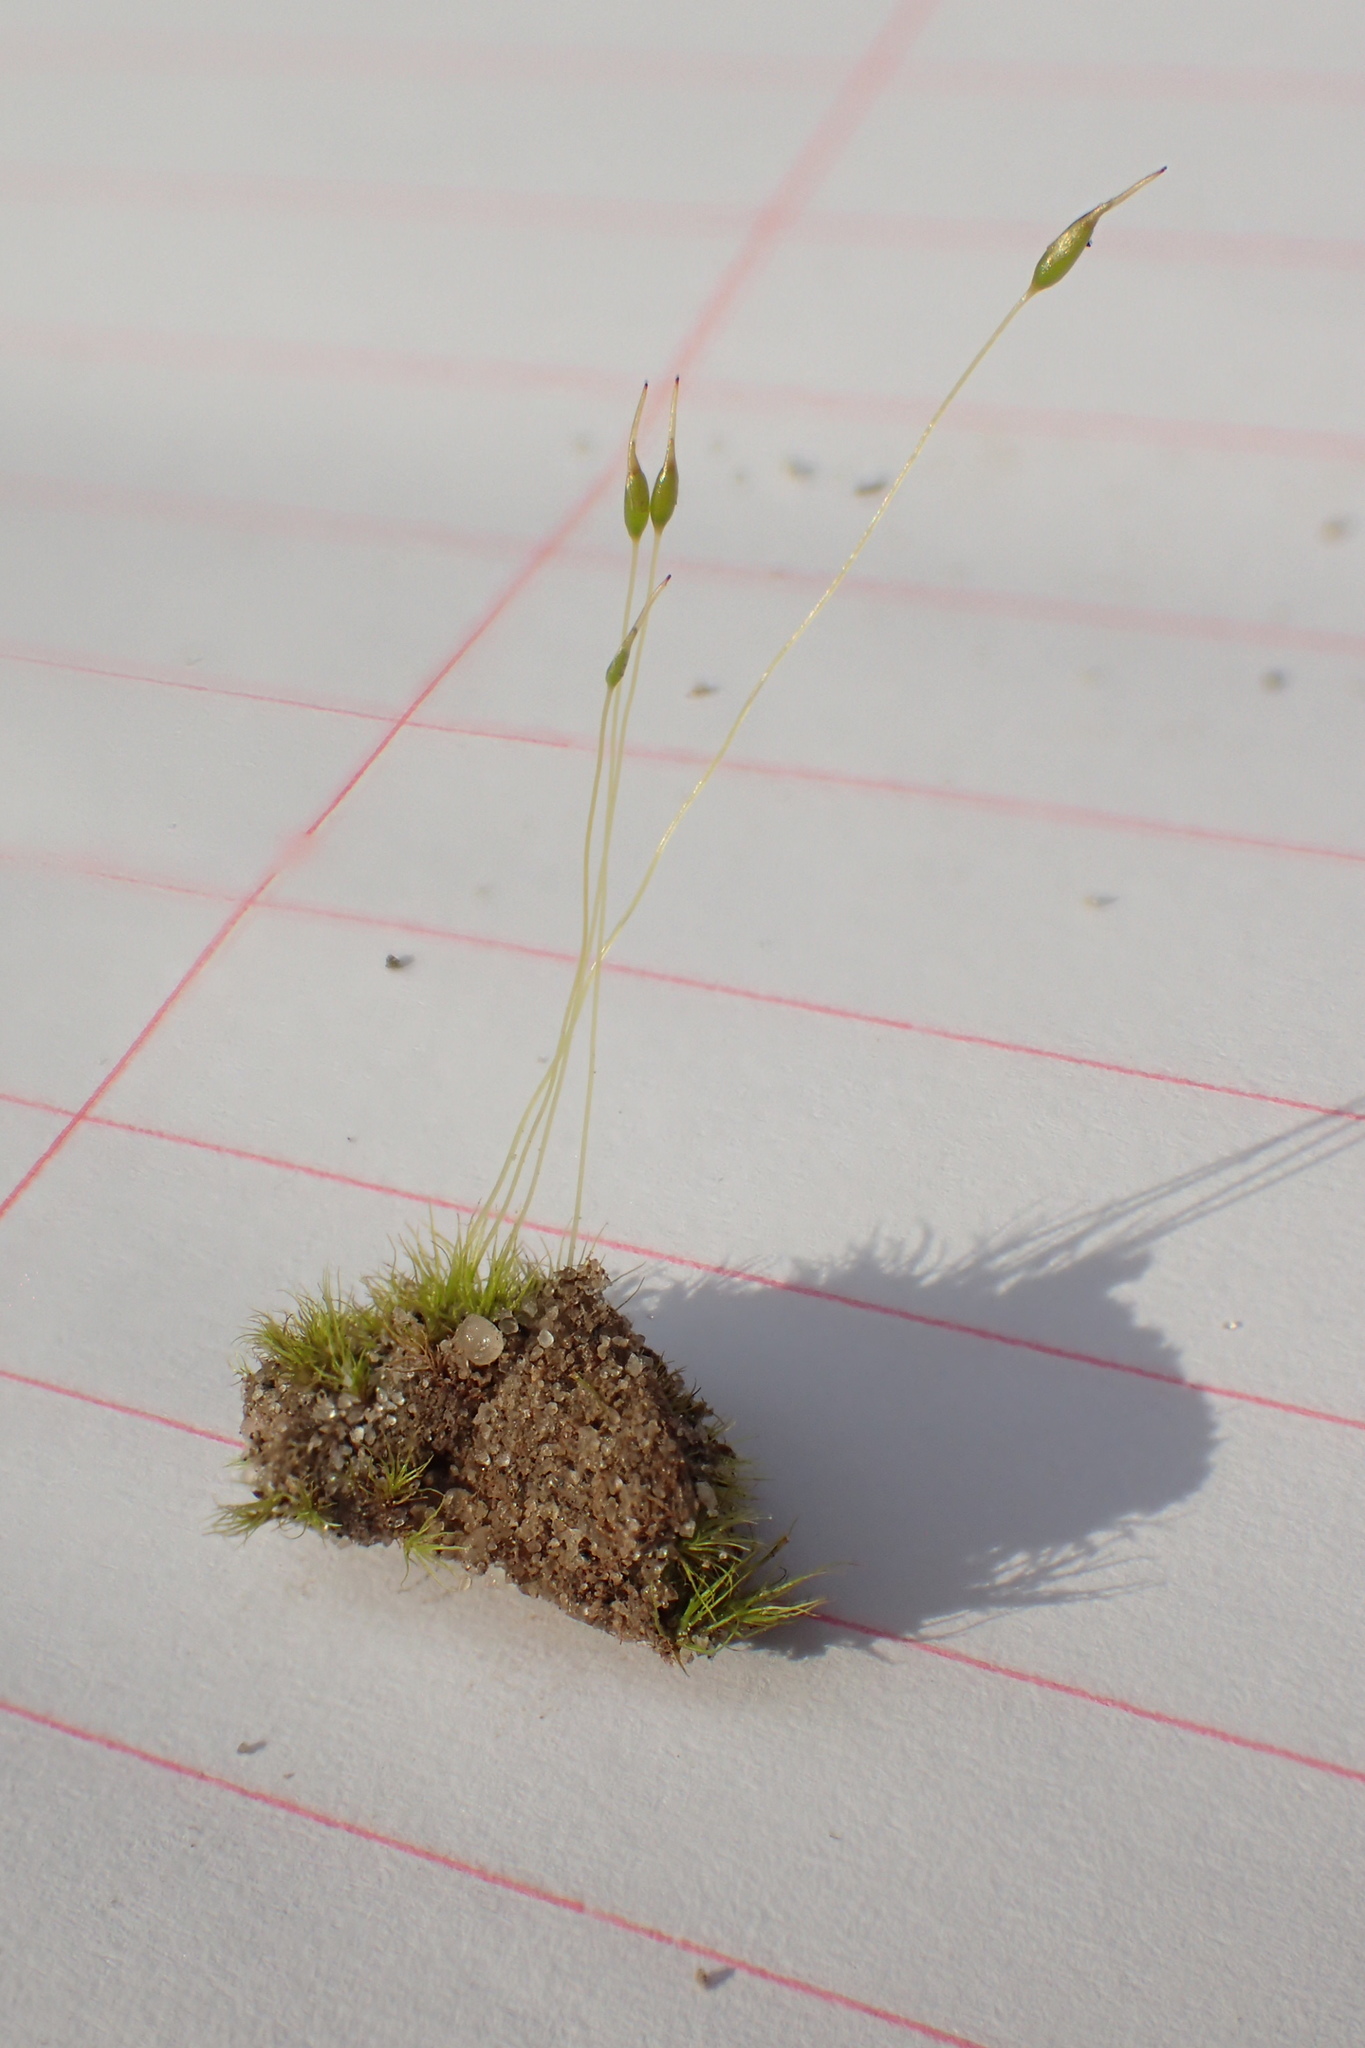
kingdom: Plantae
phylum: Bryophyta
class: Bryopsida
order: Dicranales
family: Ditrichaceae
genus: Ditrichum
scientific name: Ditrichum pallidum
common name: Pale cow-hair moss
